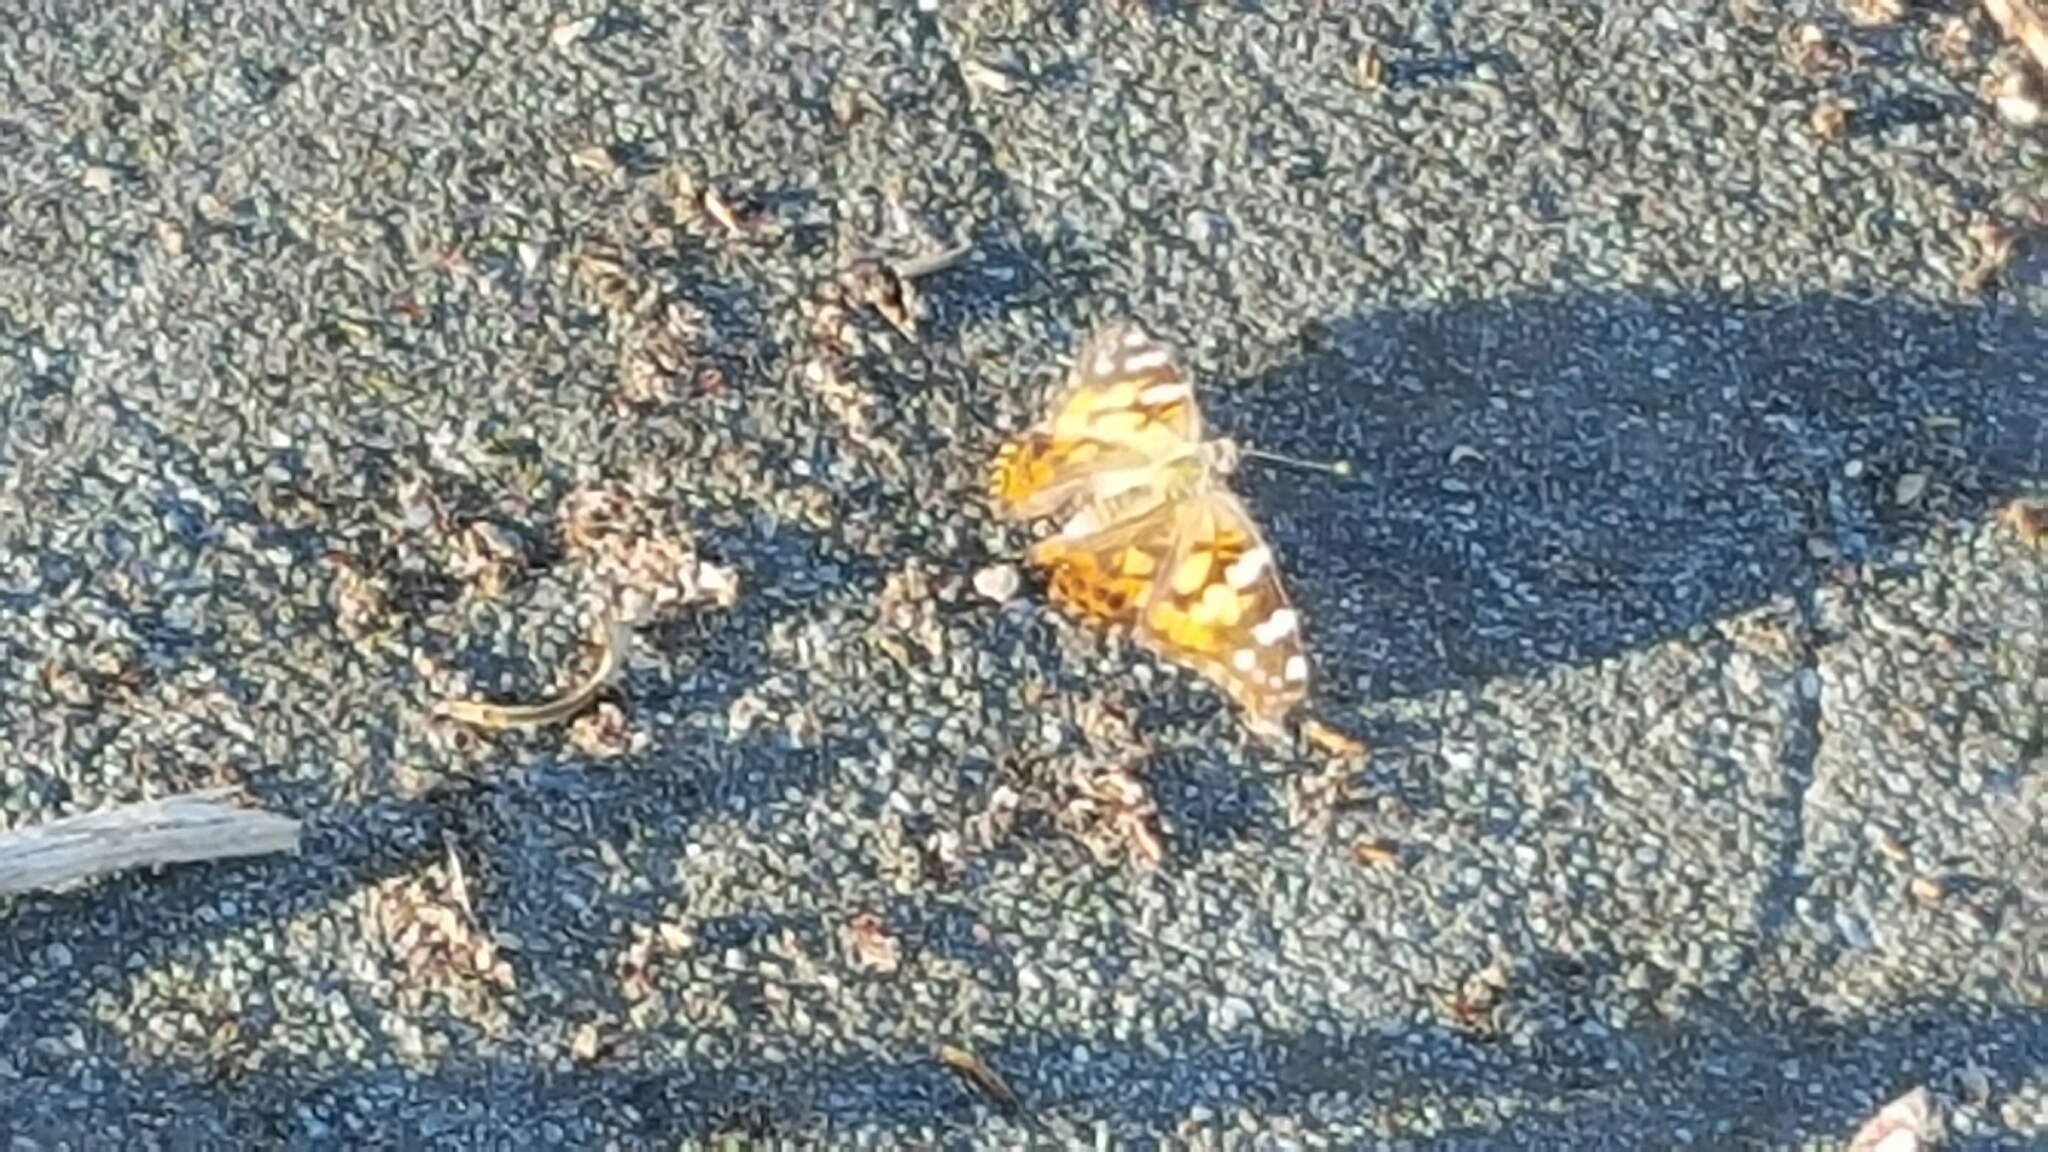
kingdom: Animalia
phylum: Arthropoda
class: Insecta
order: Lepidoptera
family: Nymphalidae
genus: Vanessa
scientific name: Vanessa cardui
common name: Painted lady
